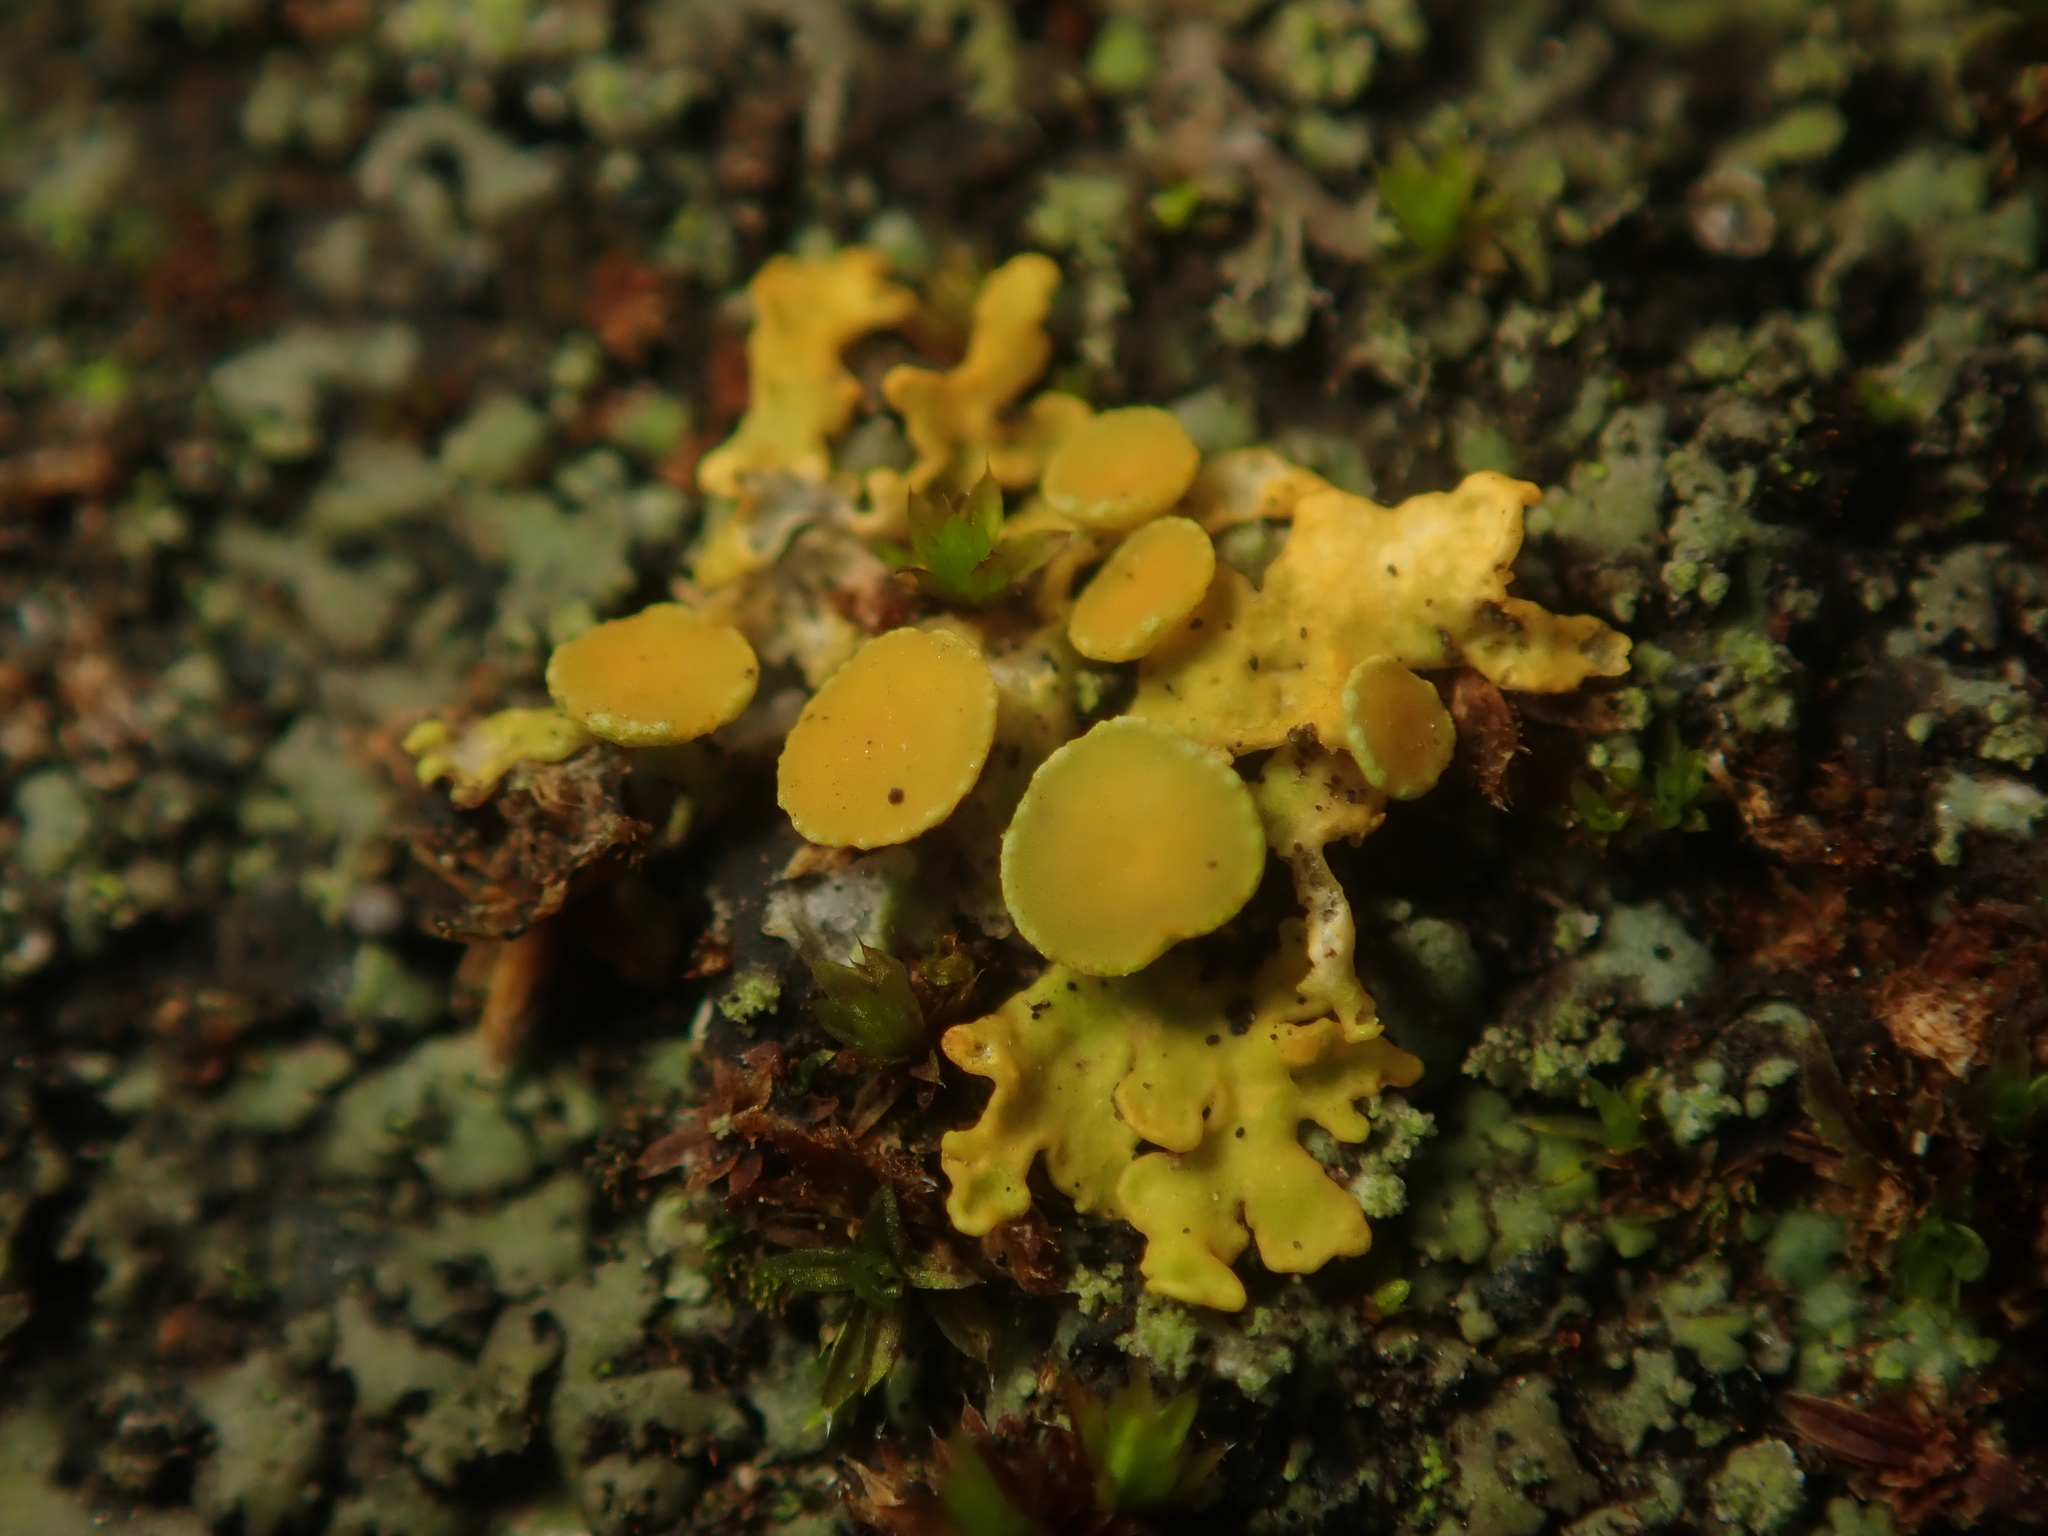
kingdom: Fungi
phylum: Ascomycota
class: Lecanoromycetes
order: Teloschistales
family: Teloschistaceae
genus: Xanthoria
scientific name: Xanthoria parietina
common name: Common orange lichen
